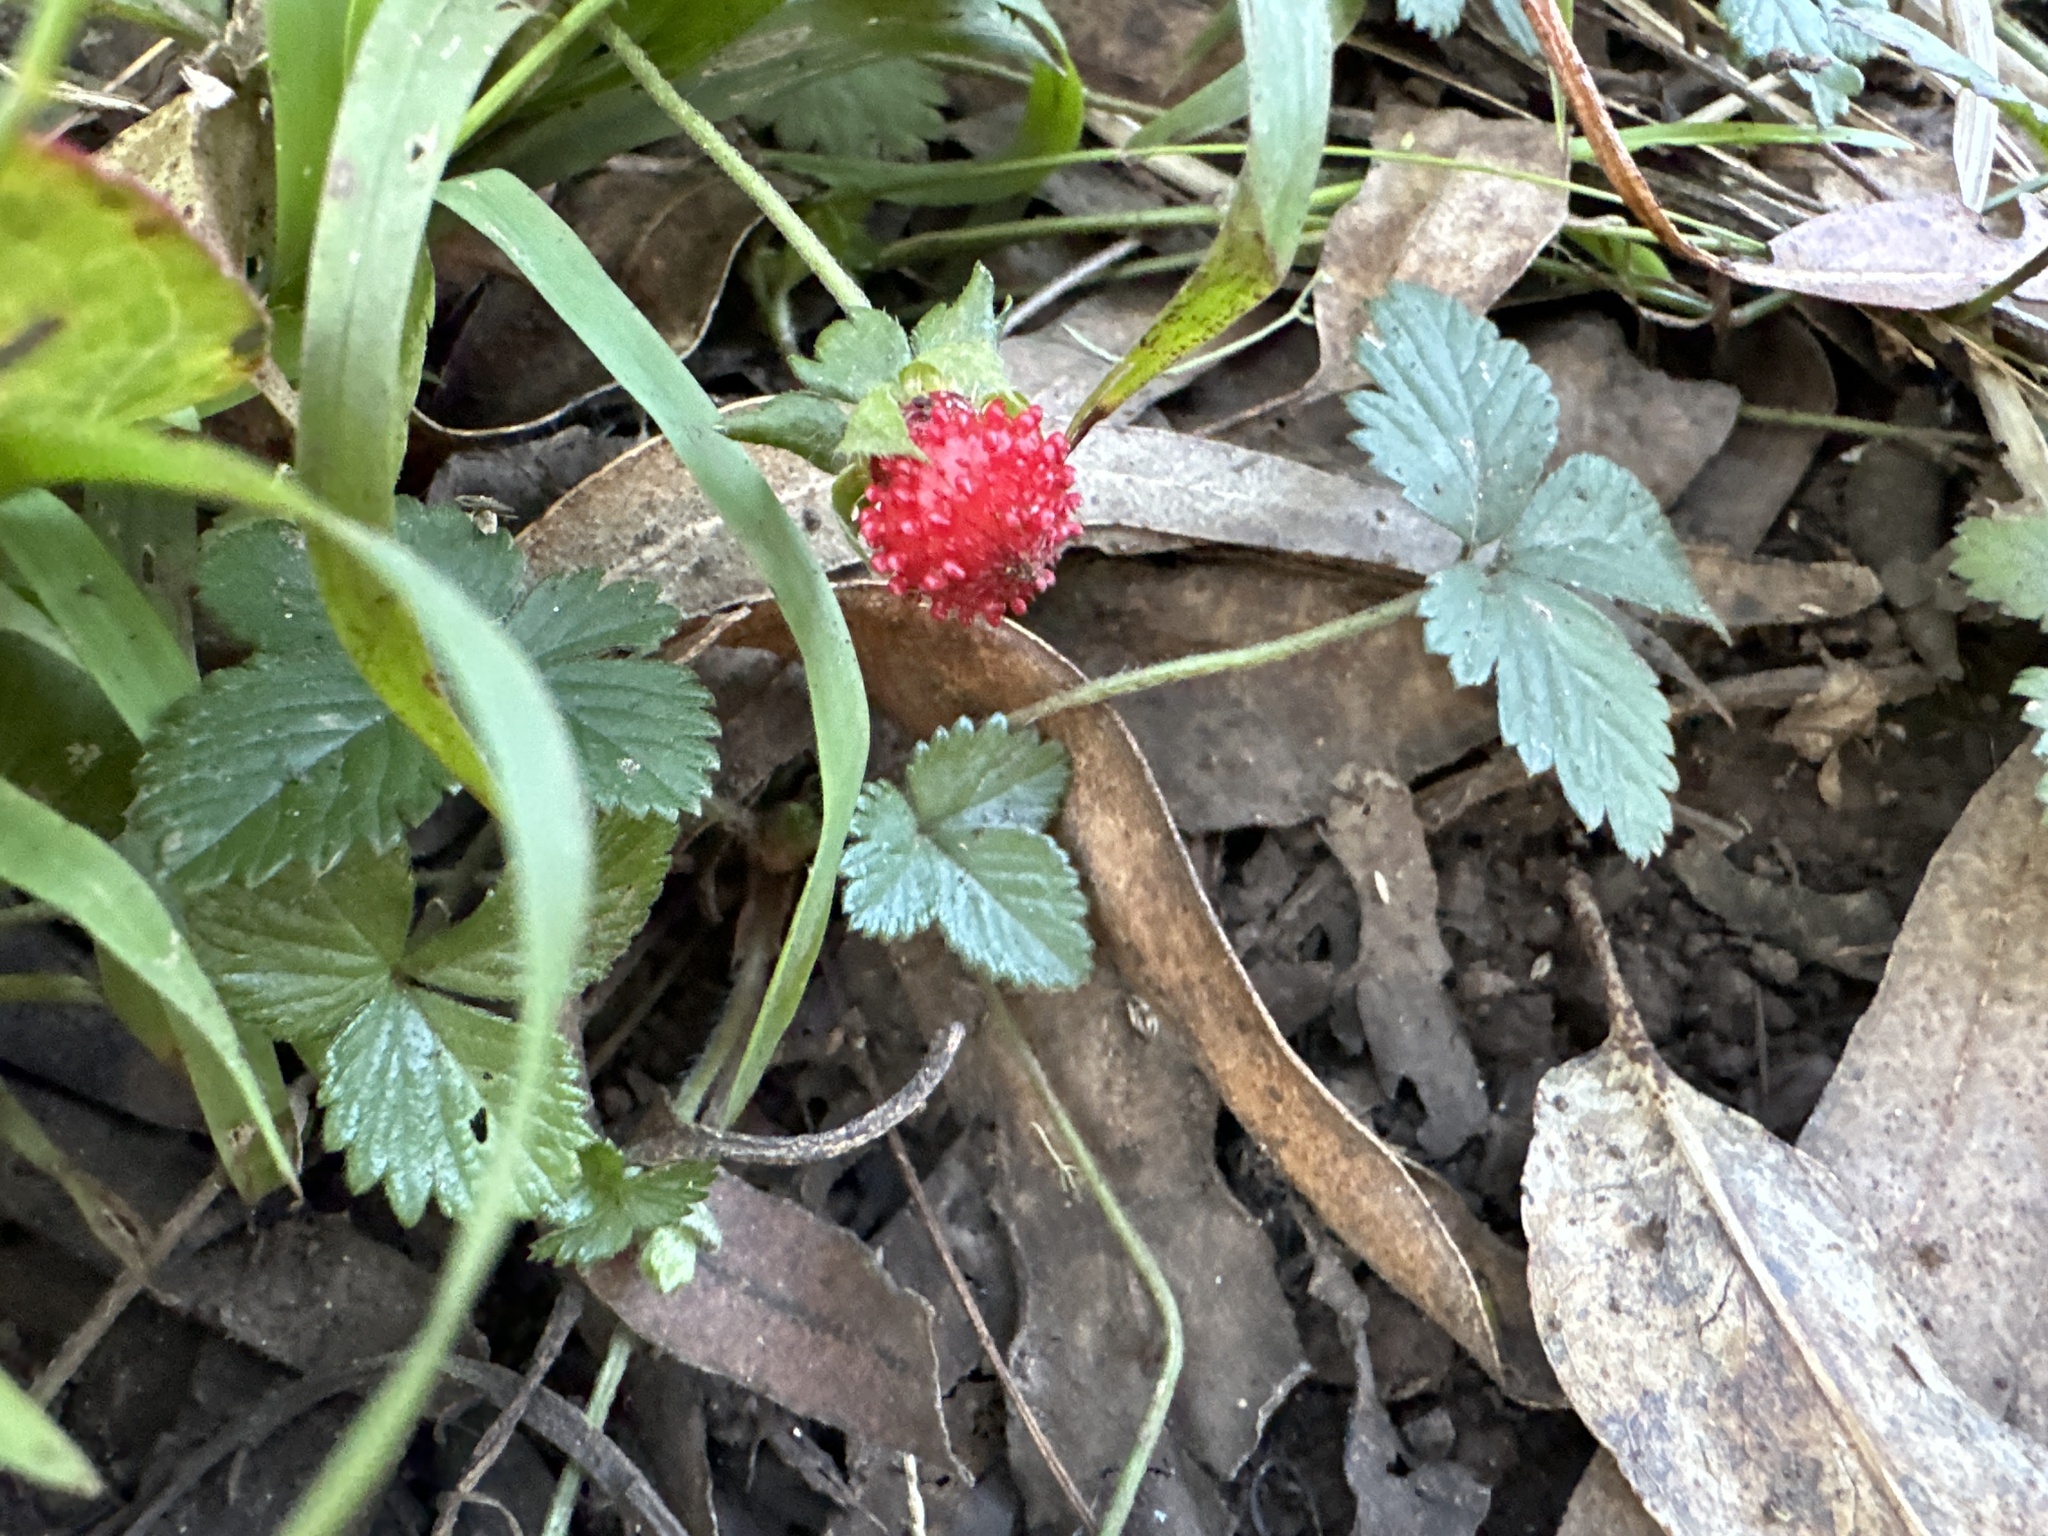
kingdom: Plantae
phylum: Tracheophyta
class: Magnoliopsida
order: Rosales
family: Rosaceae
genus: Potentilla
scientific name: Potentilla indica
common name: Yellow-flowered strawberry
